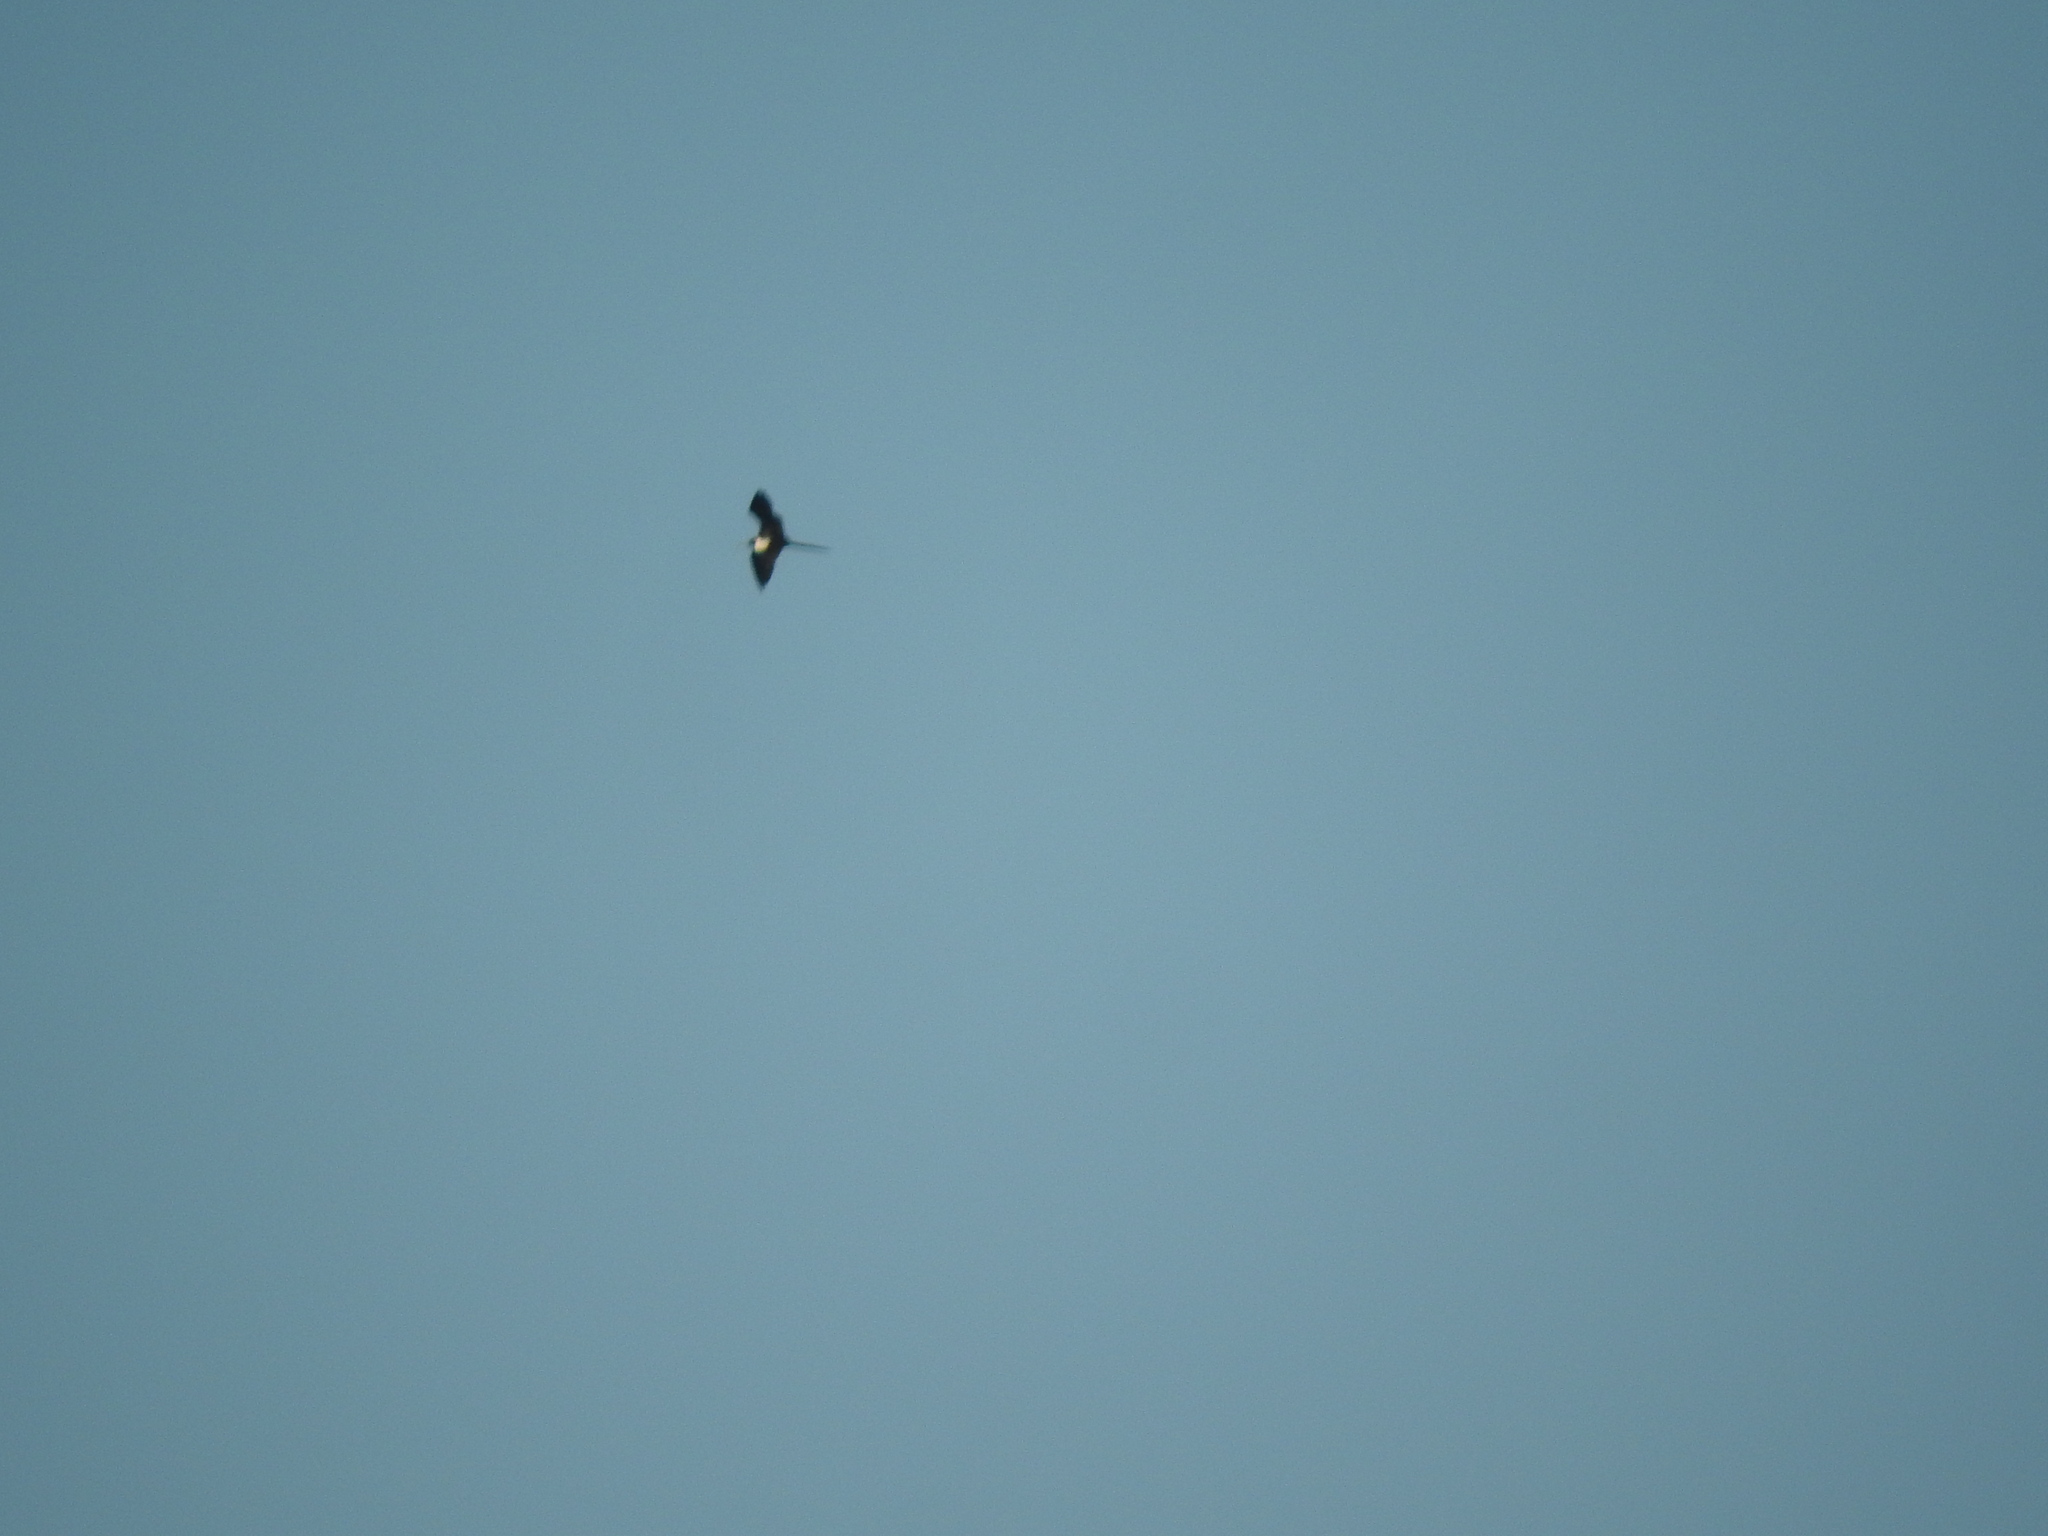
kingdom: Animalia
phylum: Chordata
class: Aves
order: Suliformes
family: Fregatidae
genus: Fregata
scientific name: Fregata magnificens
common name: Magnificent frigatebird
